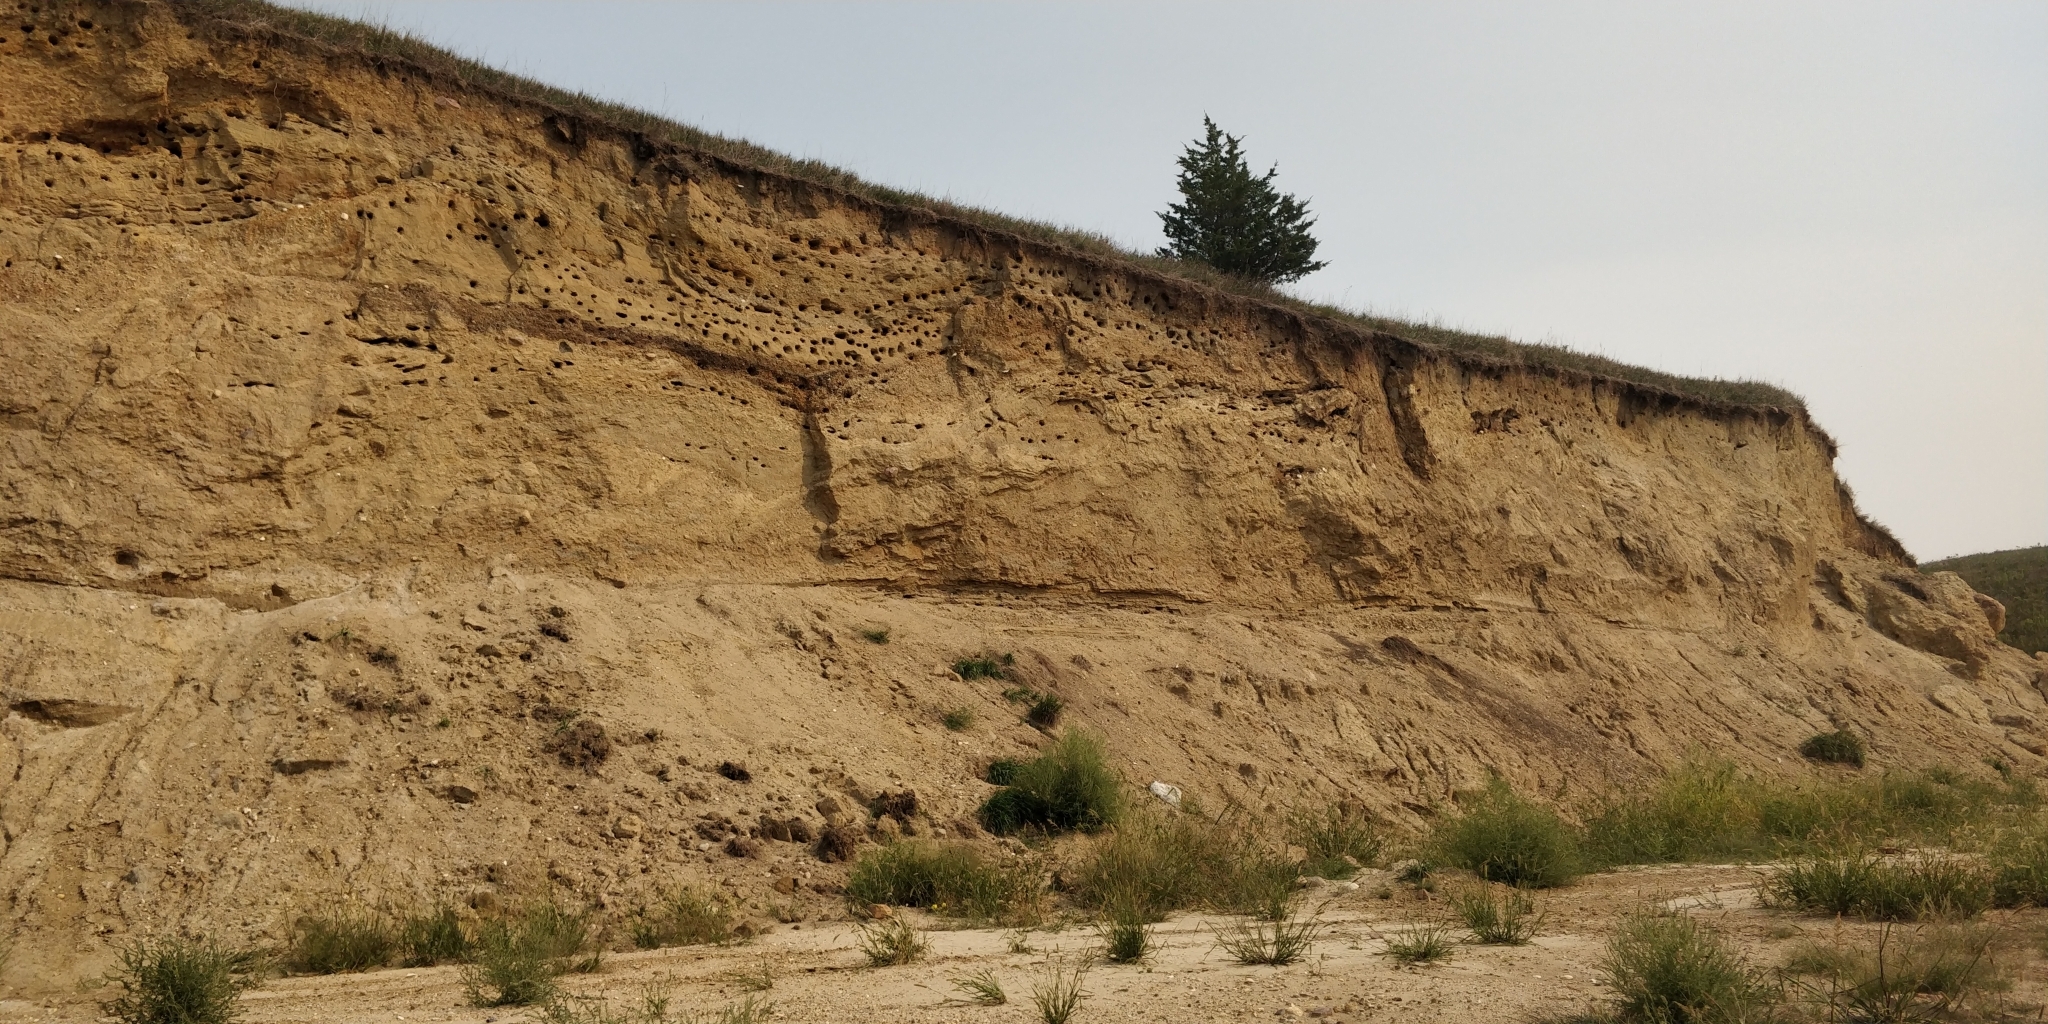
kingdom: Animalia
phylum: Chordata
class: Aves
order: Passeriformes
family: Hirundinidae
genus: Riparia
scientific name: Riparia riparia
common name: Sand martin
